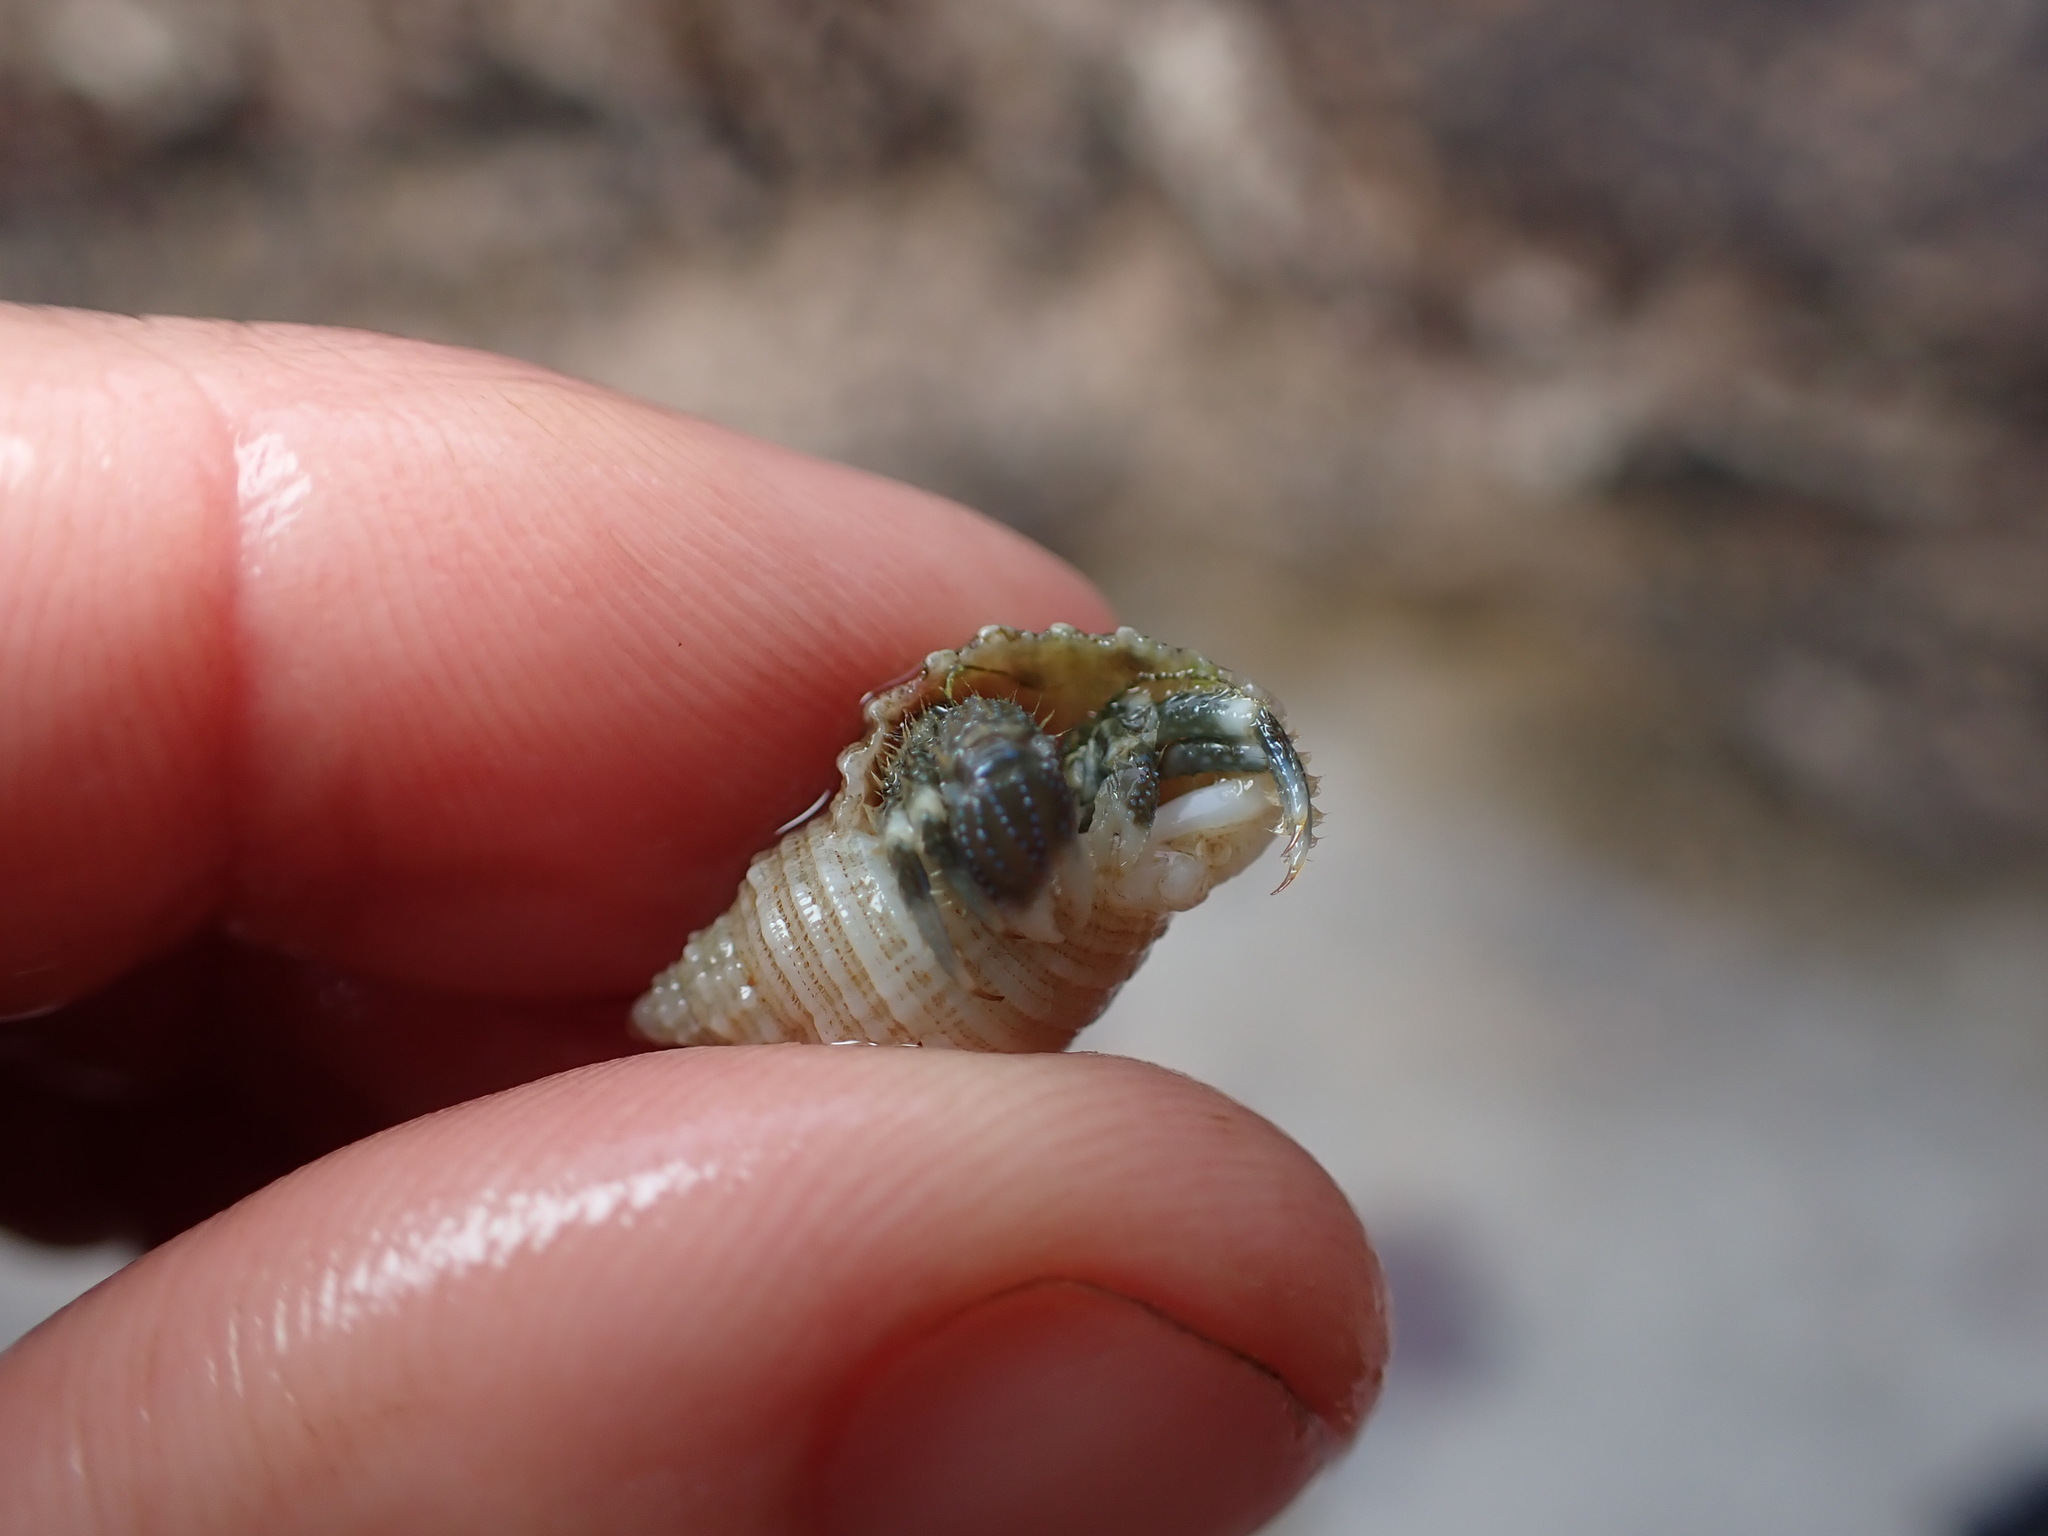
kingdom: Animalia
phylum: Arthropoda
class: Malacostraca
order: Decapoda
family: Paguridae
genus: Pagurus
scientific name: Pagurus novizealandiae
